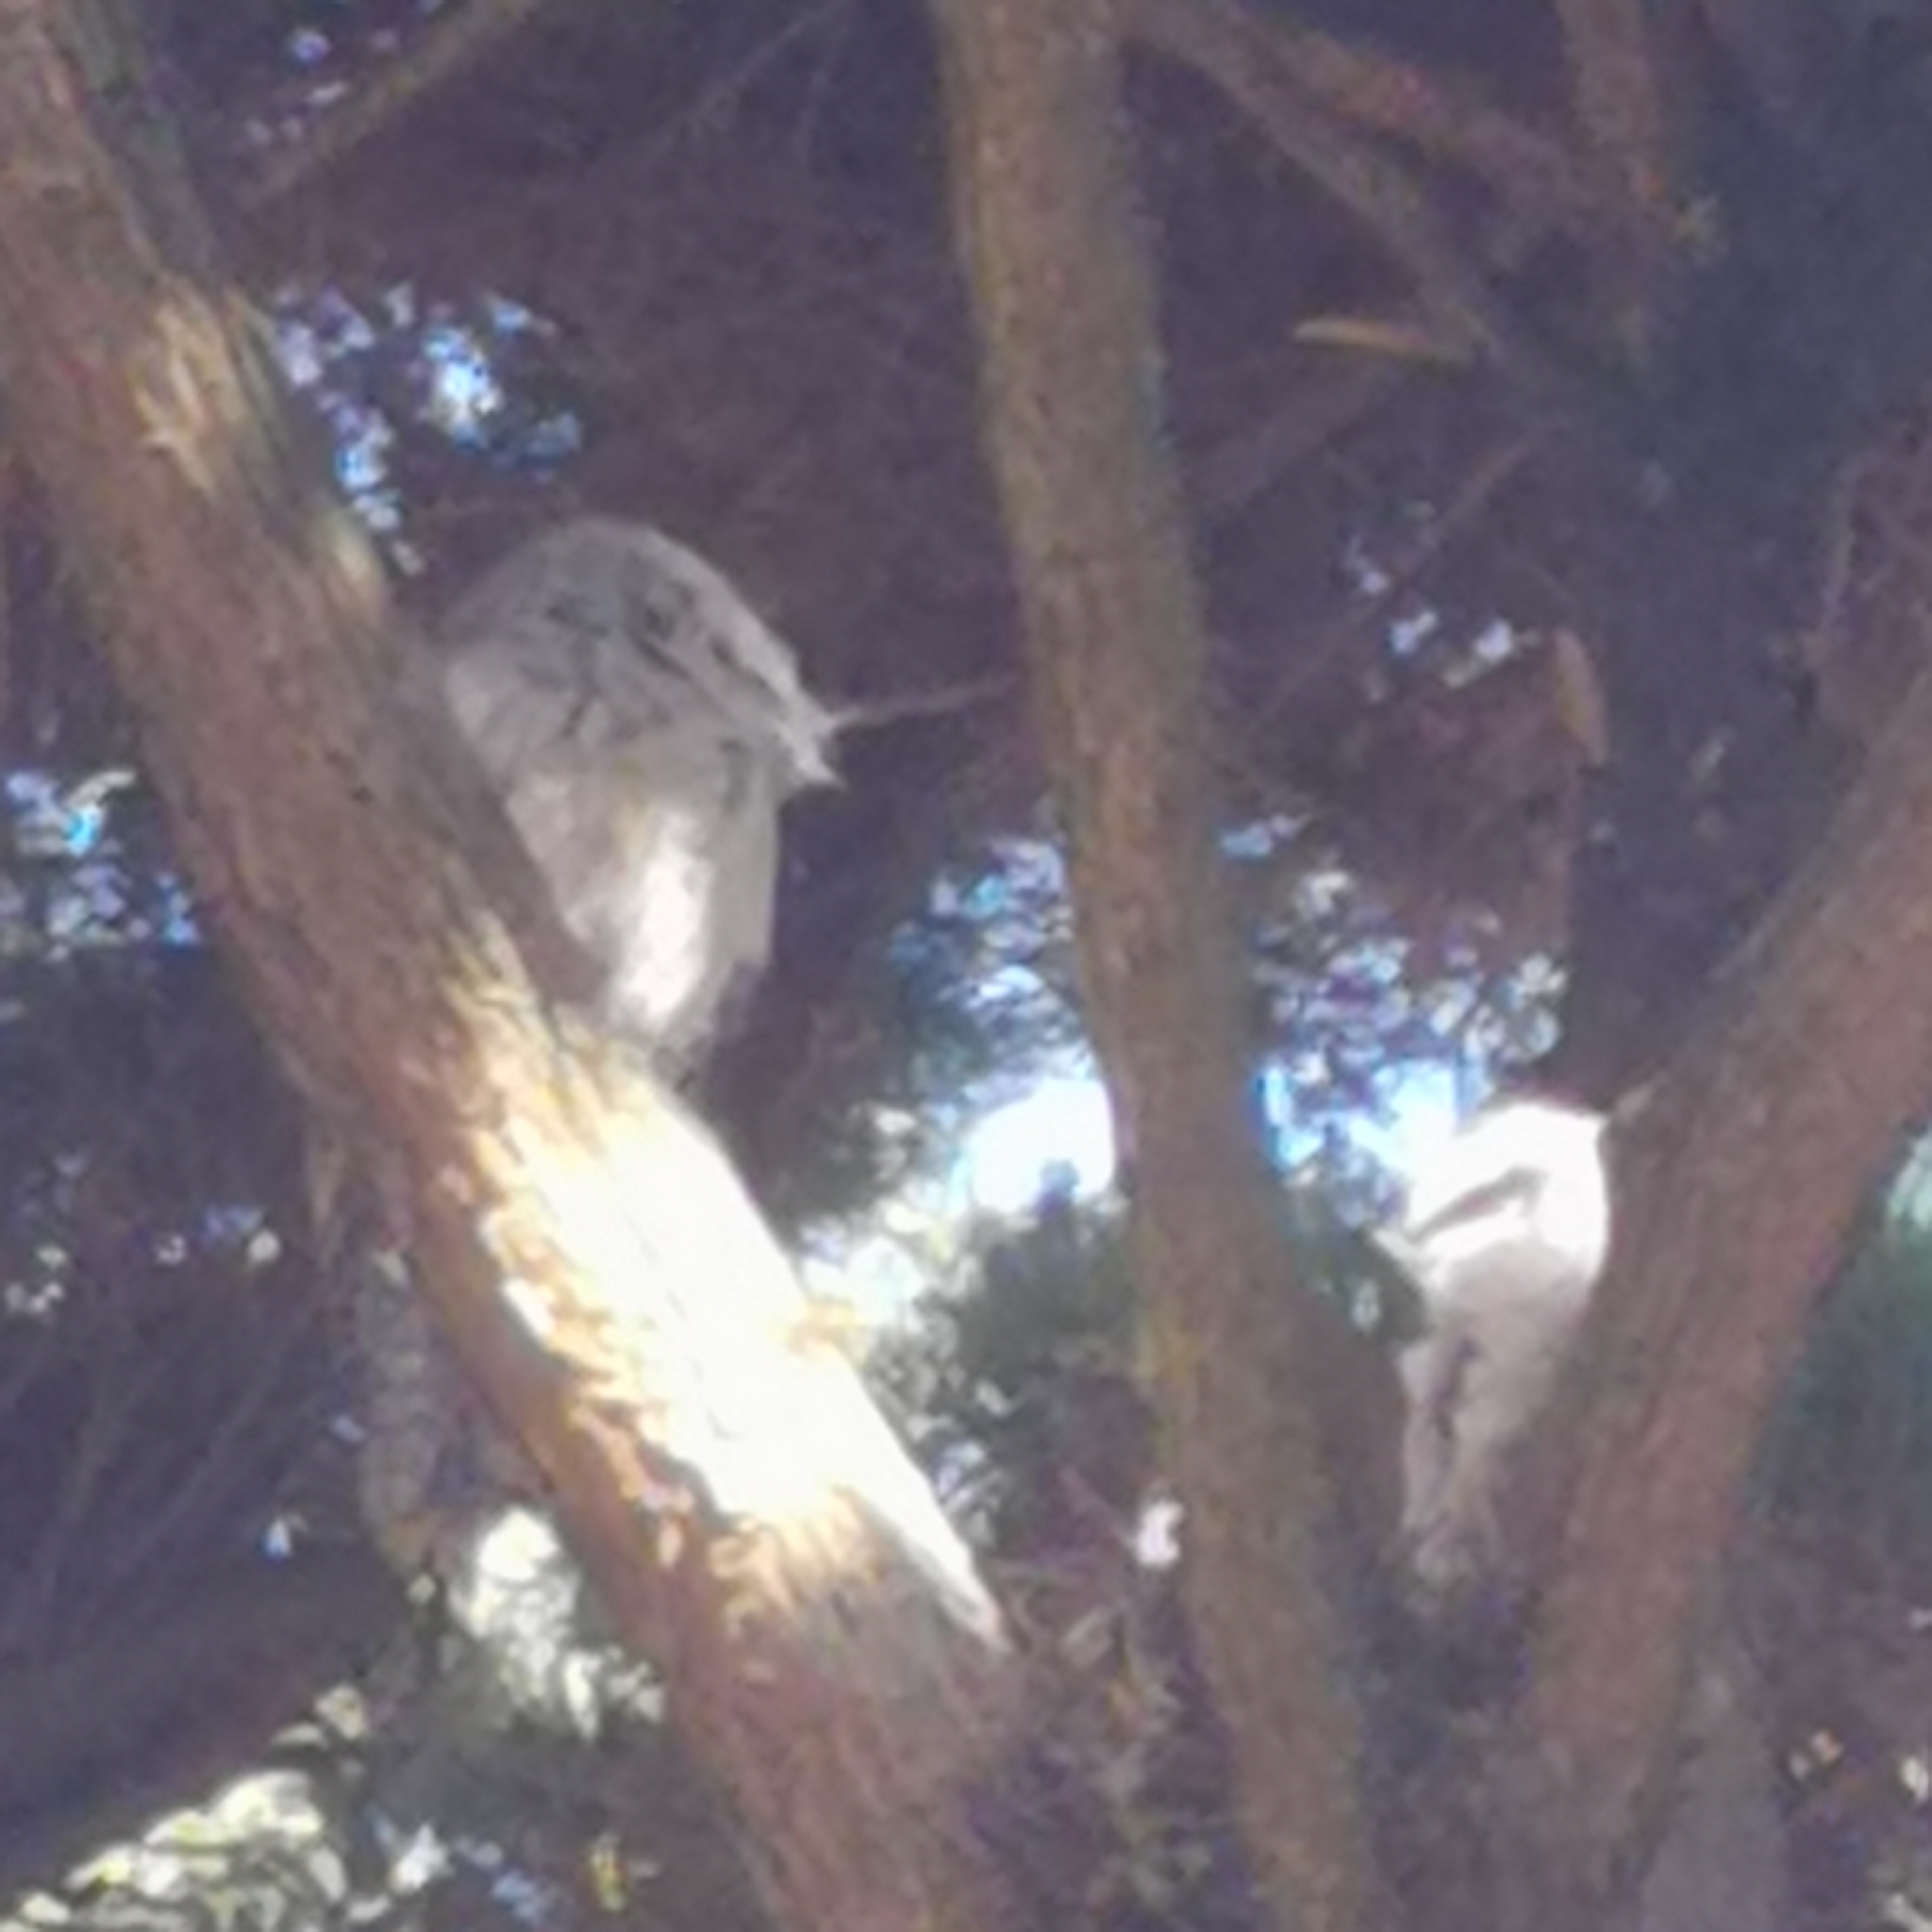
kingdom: Animalia
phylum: Chordata
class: Aves
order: Caprimulgiformes
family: Podargidae
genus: Podargus
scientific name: Podargus strigoides
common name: Tawny frogmouth
